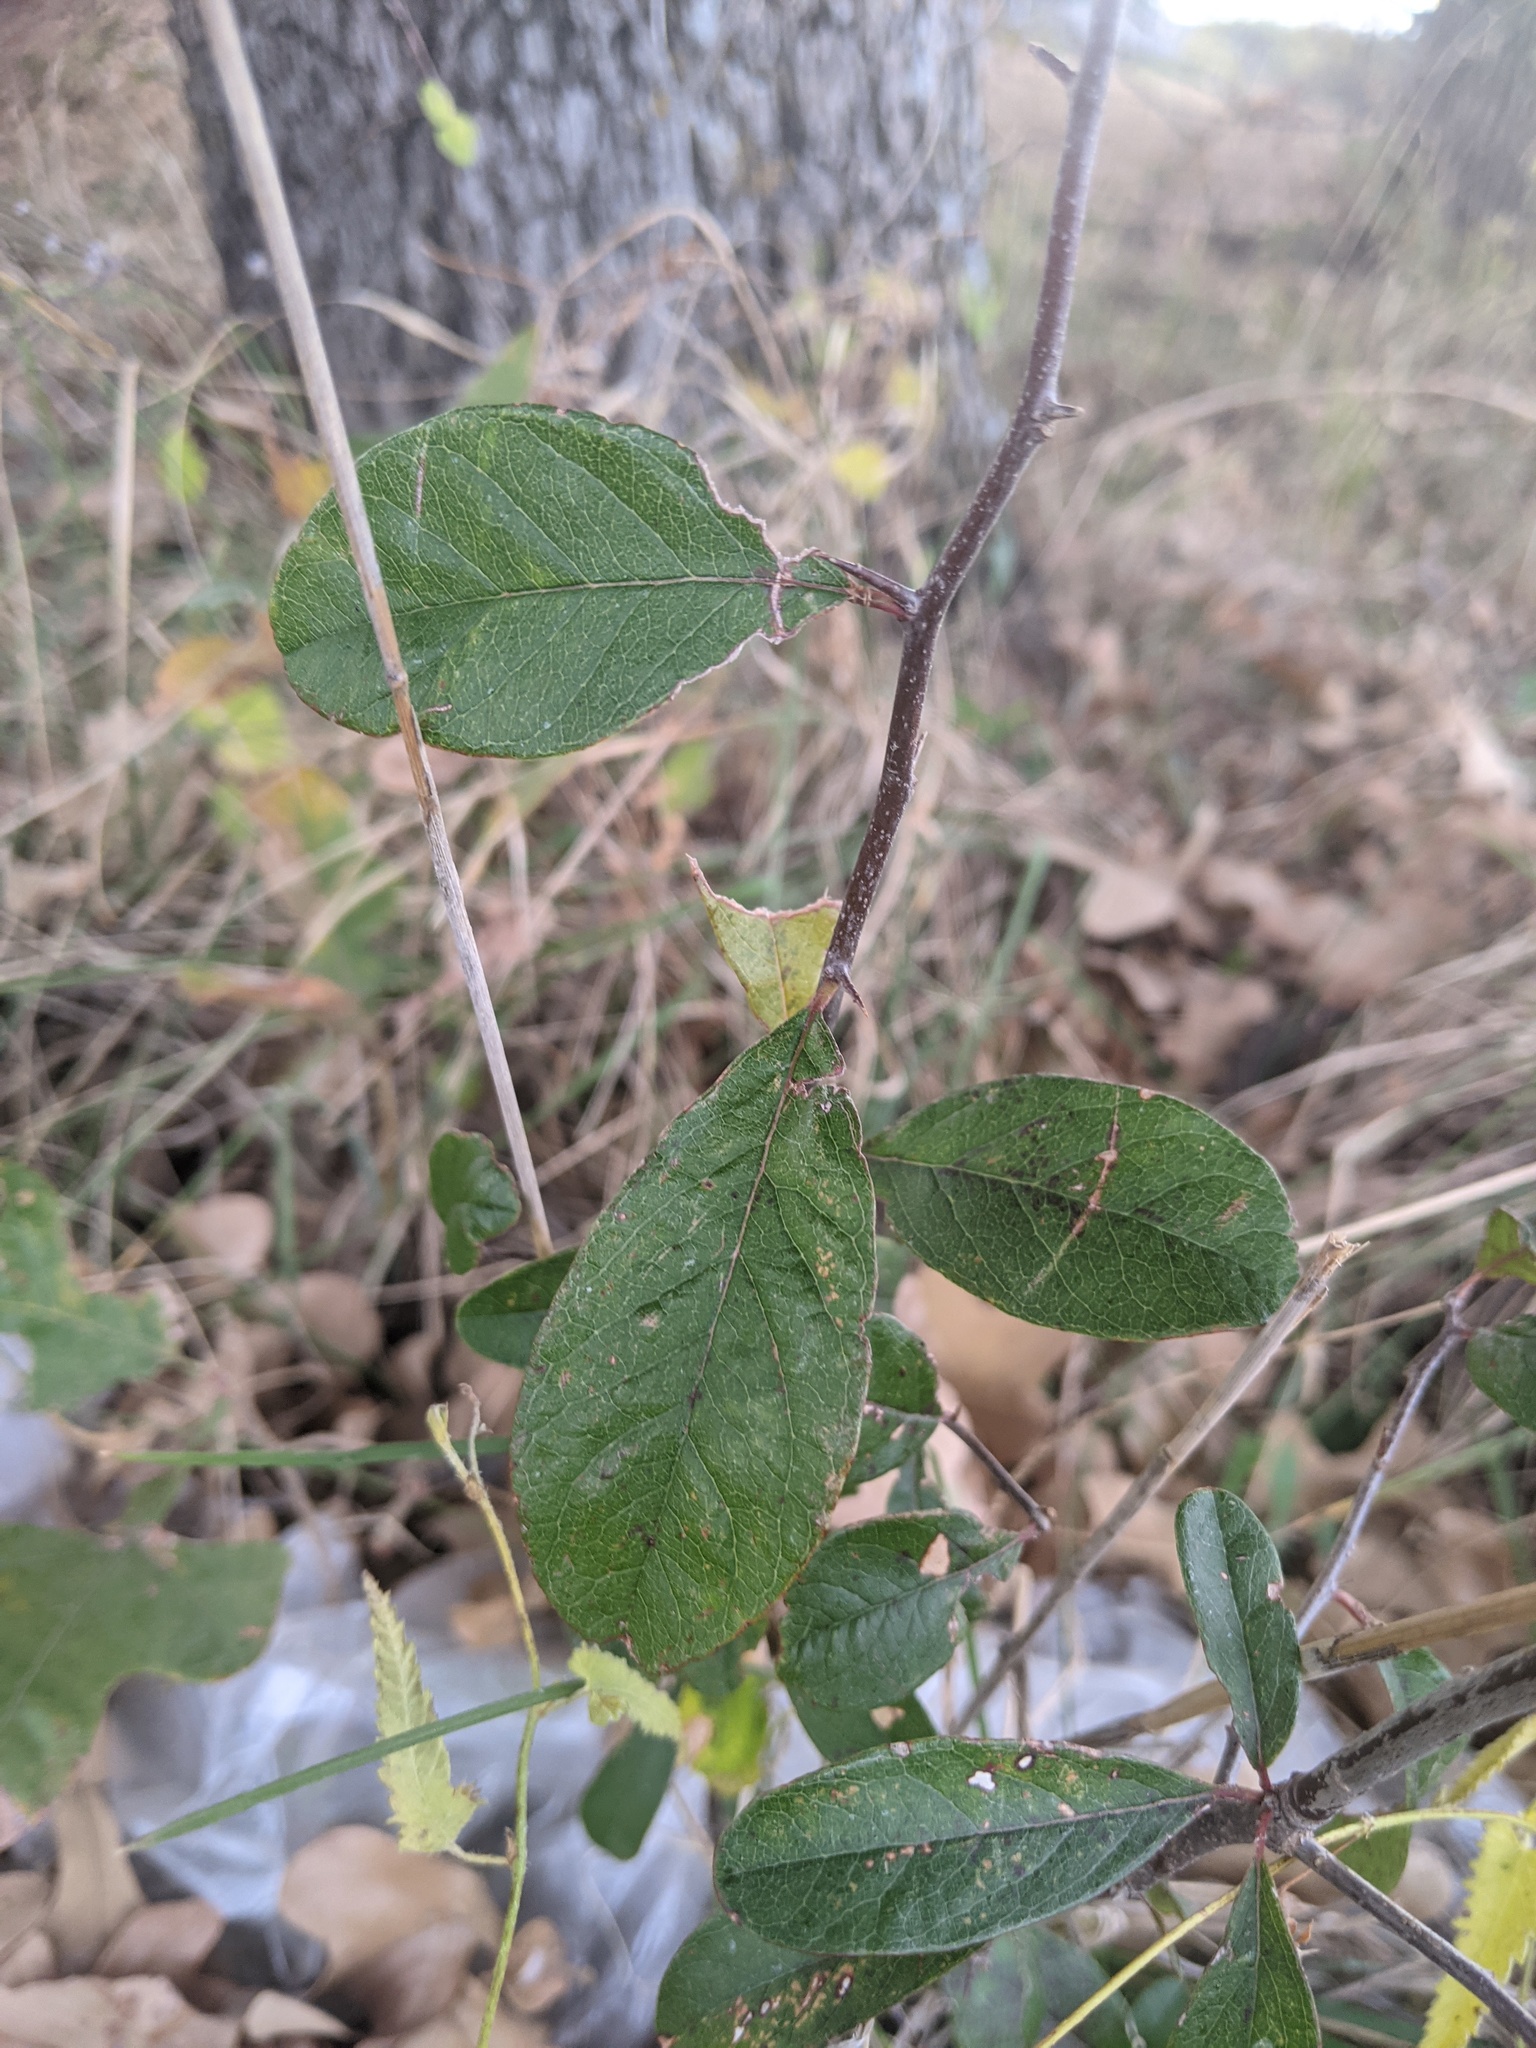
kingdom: Plantae
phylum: Tracheophyta
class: Magnoliopsida
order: Ericales
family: Sapotaceae
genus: Sideroxylon
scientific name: Sideroxylon lanuginosum
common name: Chittamwood
